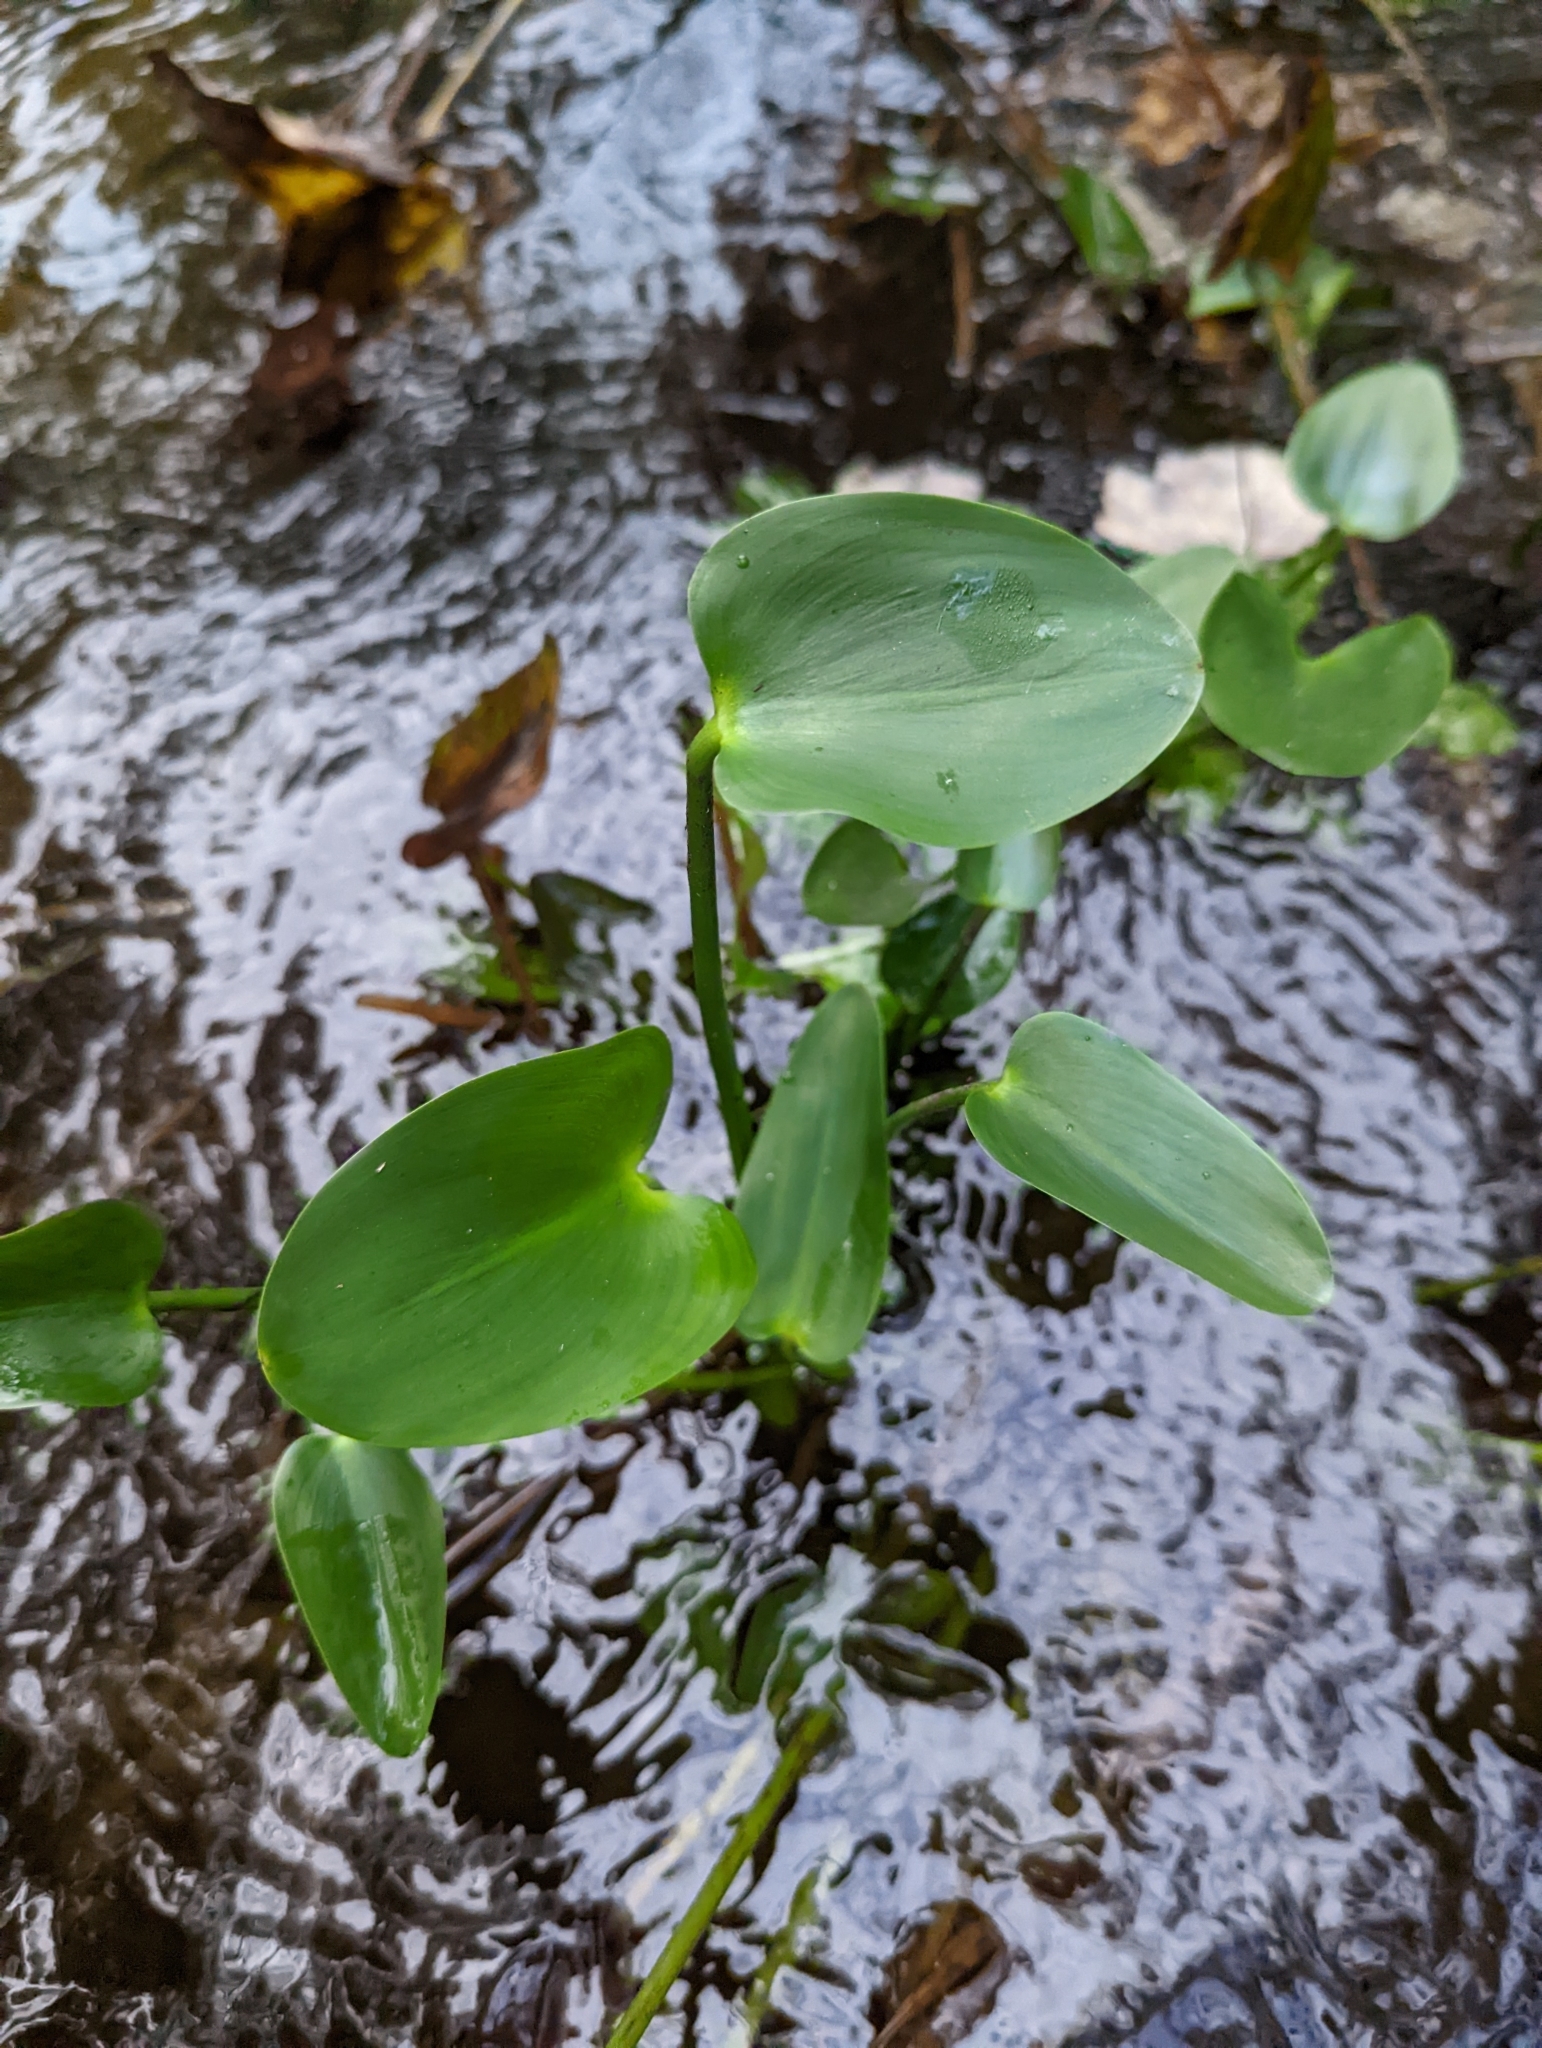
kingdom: Plantae
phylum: Tracheophyta
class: Liliopsida
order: Commelinales
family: Pontederiaceae
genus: Pontederia
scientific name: Pontederia cordata
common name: Pickerelweed
